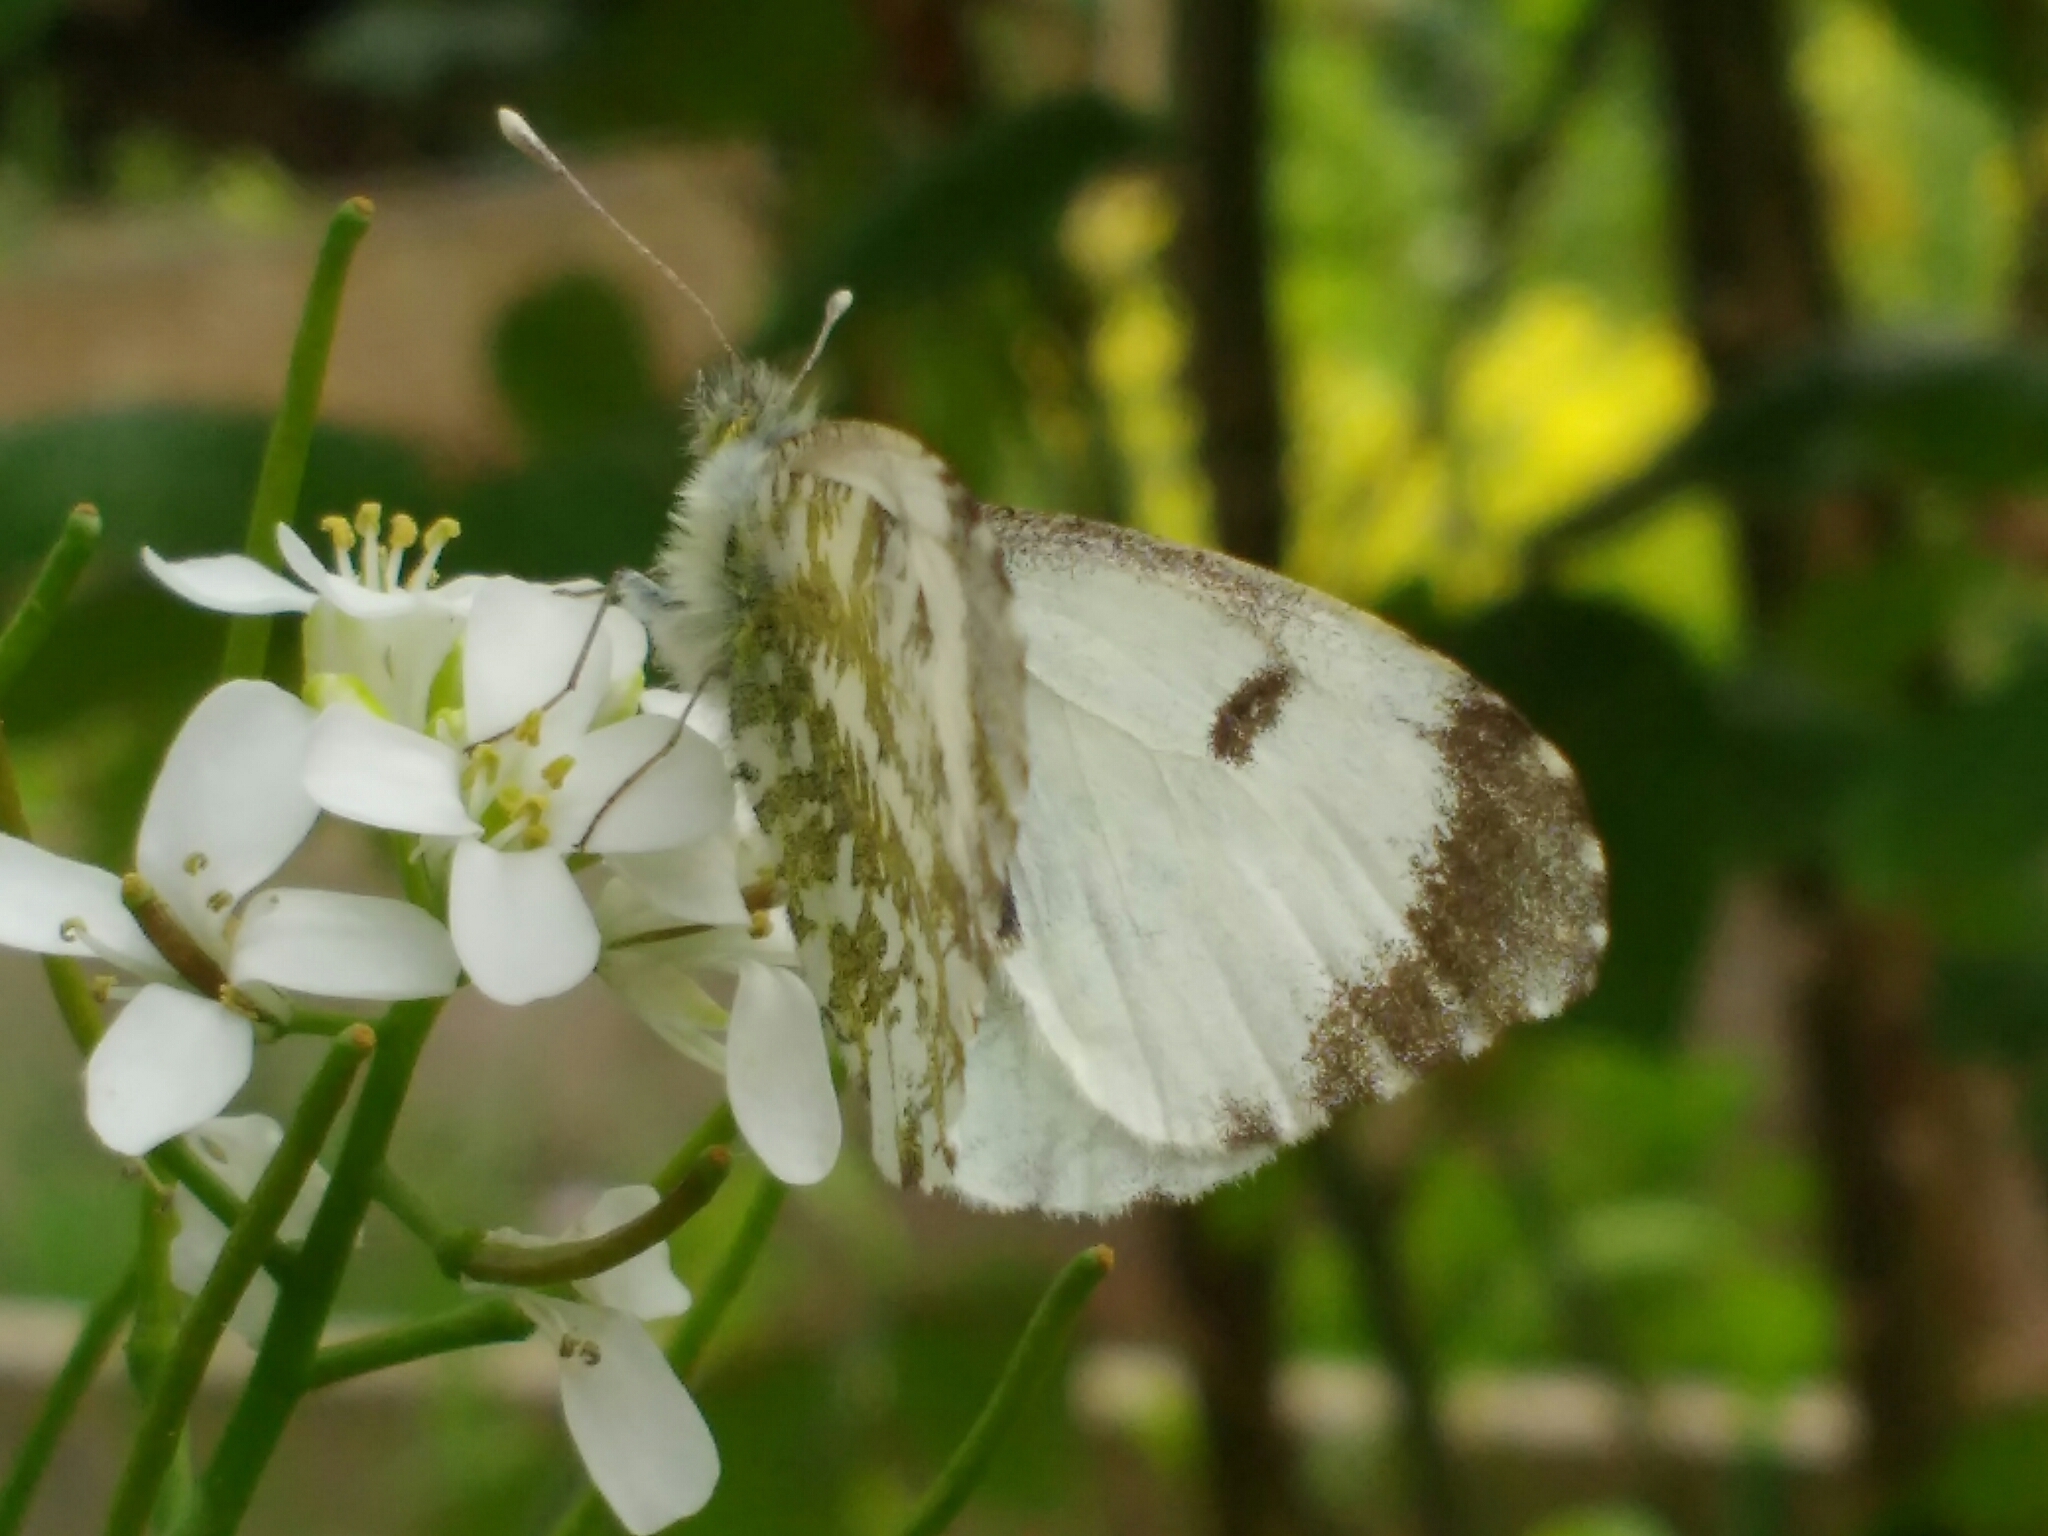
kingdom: Animalia
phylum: Arthropoda
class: Insecta
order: Lepidoptera
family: Pieridae
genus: Anthocharis
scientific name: Anthocharis cardamines
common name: Orange-tip
